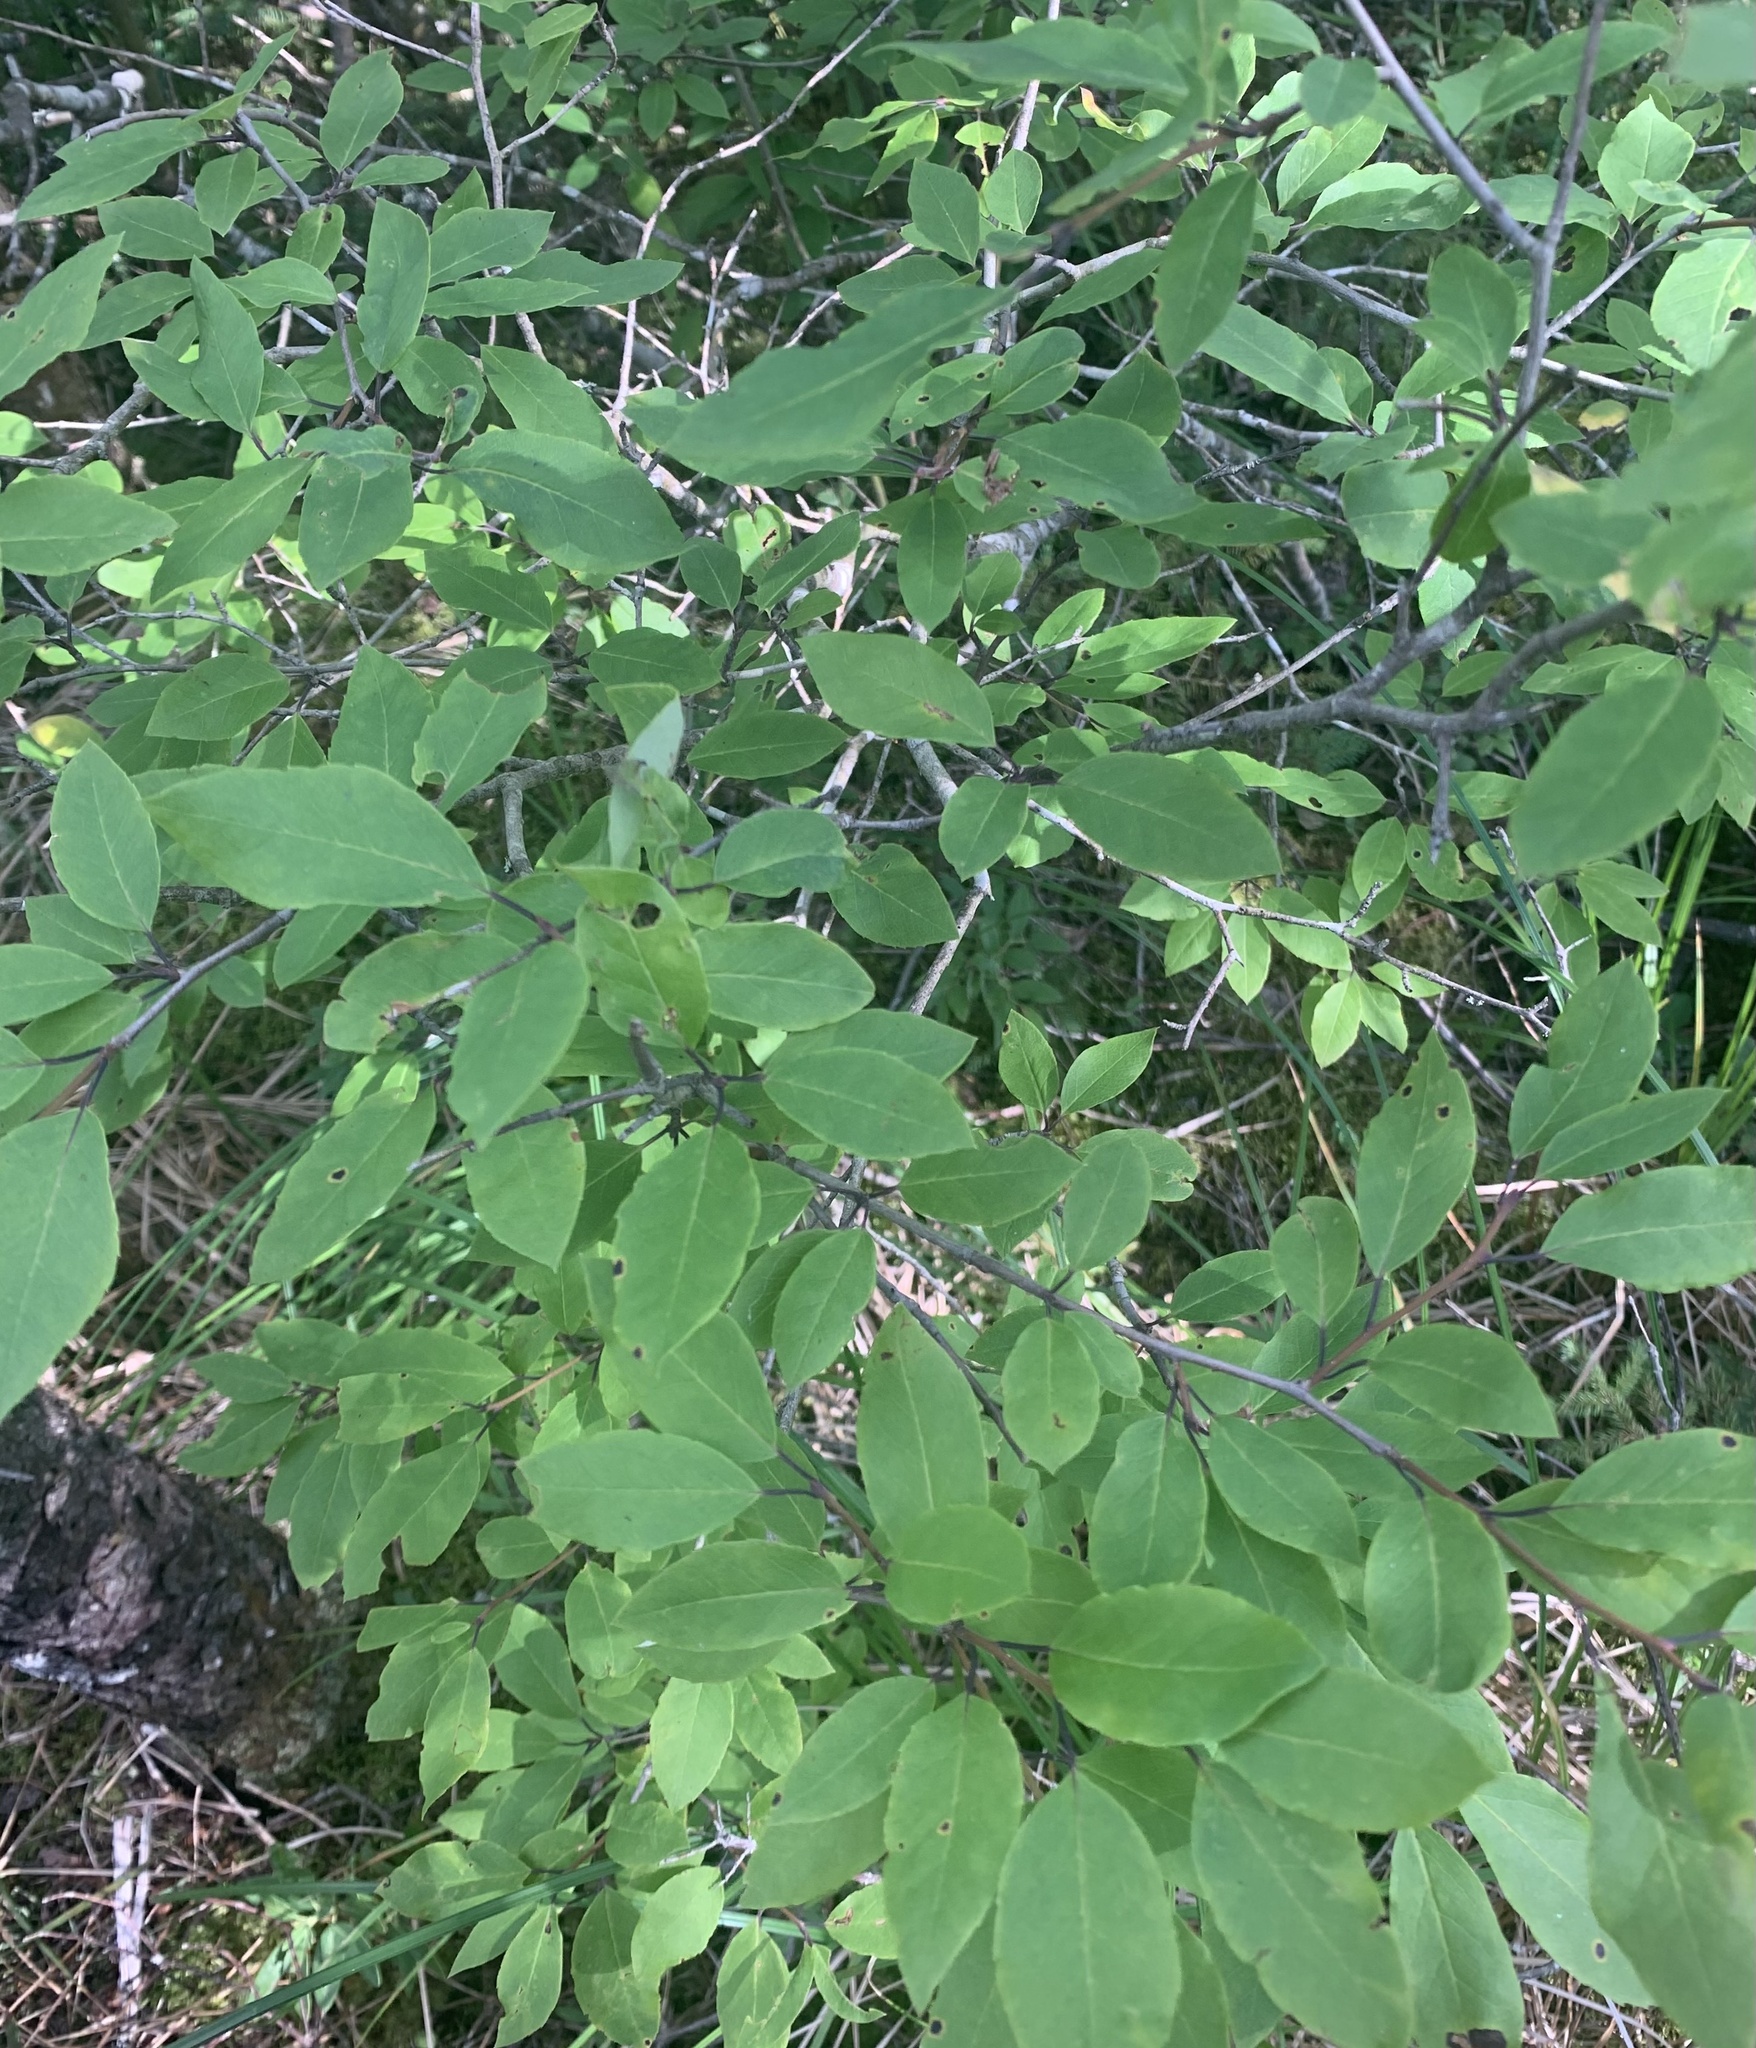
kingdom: Plantae
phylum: Tracheophyta
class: Magnoliopsida
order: Aquifoliales
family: Aquifoliaceae
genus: Ilex
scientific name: Ilex mucronata
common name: Catberry
